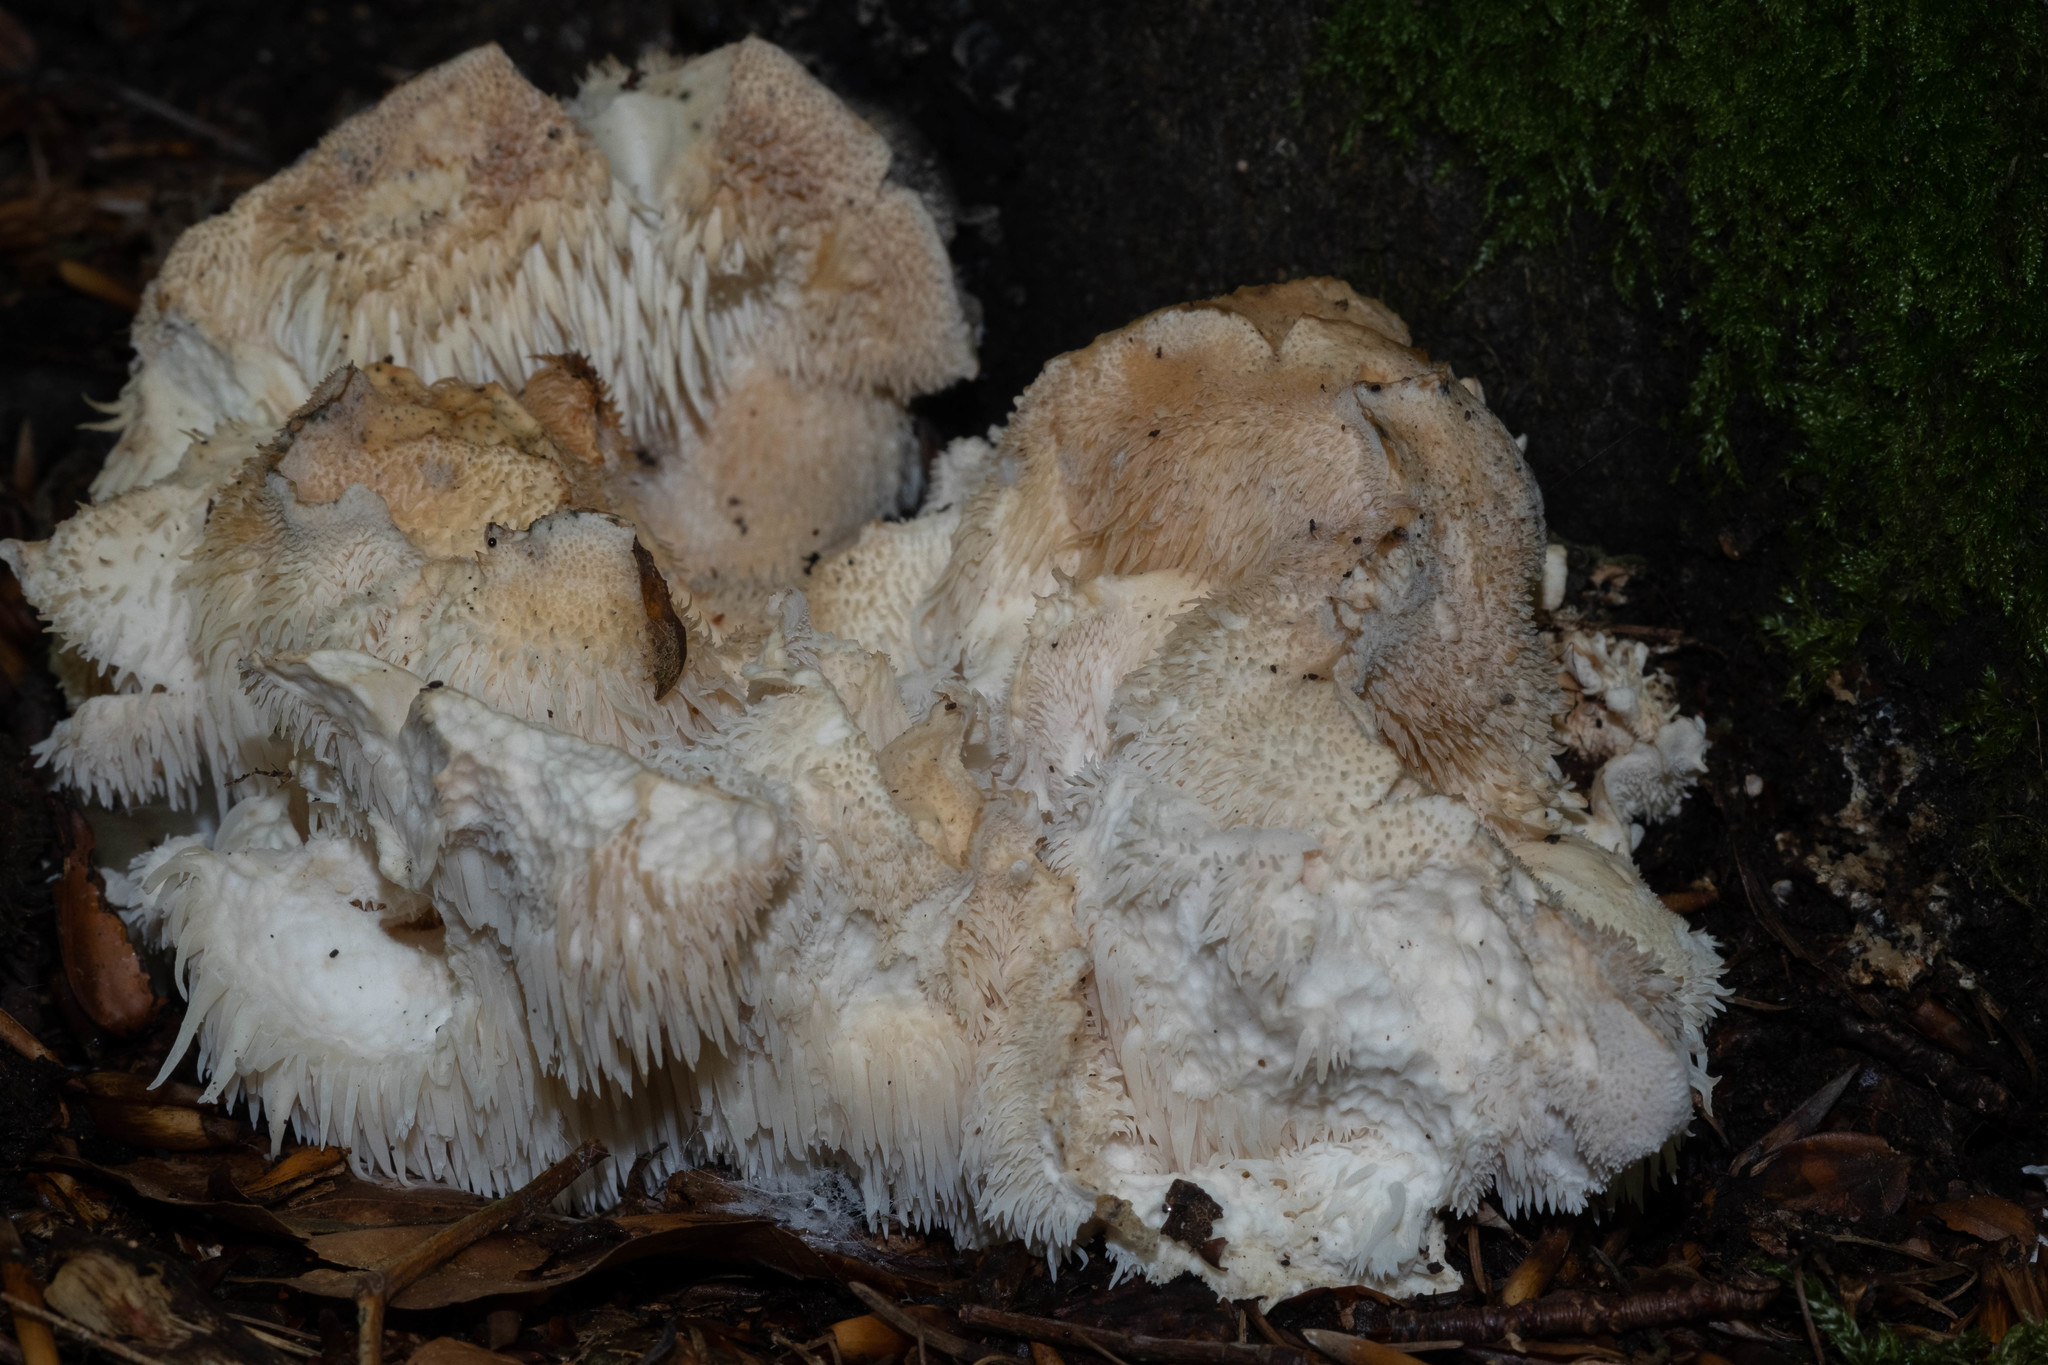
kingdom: Fungi
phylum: Basidiomycota
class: Agaricomycetes
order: Russulales
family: Hericiaceae
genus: Hericium
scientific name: Hericium cirrhatum
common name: Tiered tooth
